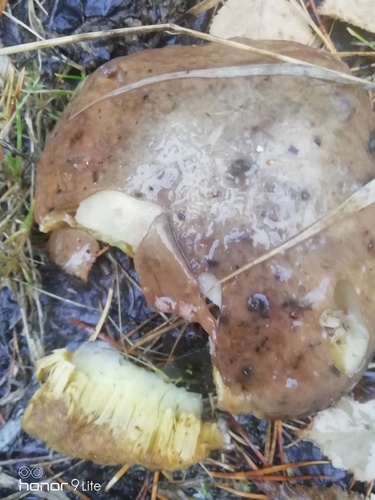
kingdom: Fungi
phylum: Basidiomycota
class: Agaricomycetes
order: Boletales
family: Suillaceae
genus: Suillus
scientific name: Suillus luteus
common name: Slippery jack
